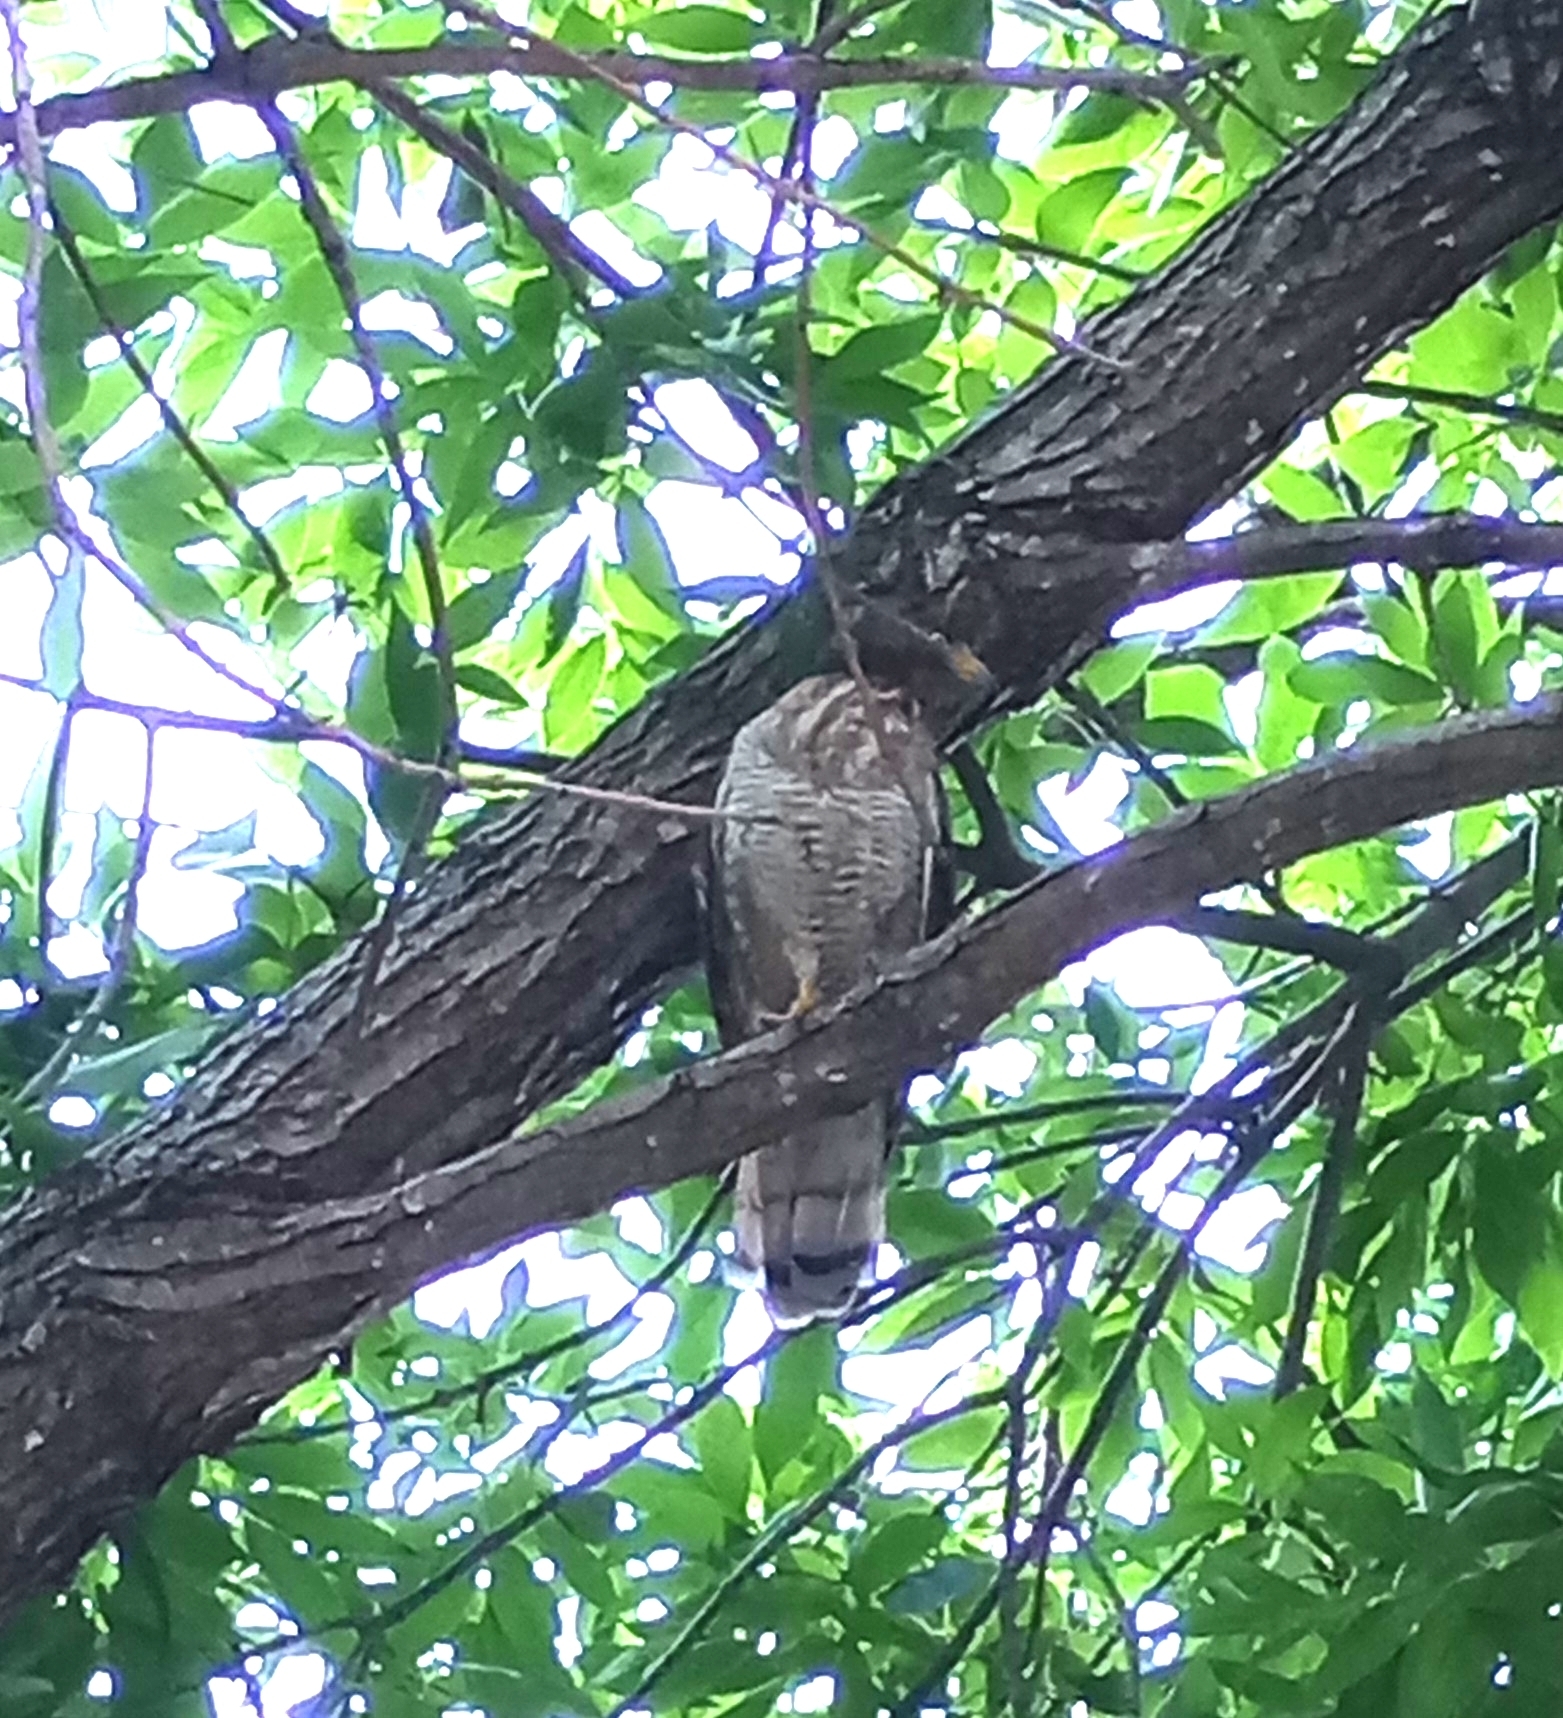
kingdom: Animalia
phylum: Chordata
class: Aves
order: Accipitriformes
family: Accipitridae
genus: Rupornis
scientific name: Rupornis magnirostris
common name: Roadside hawk
